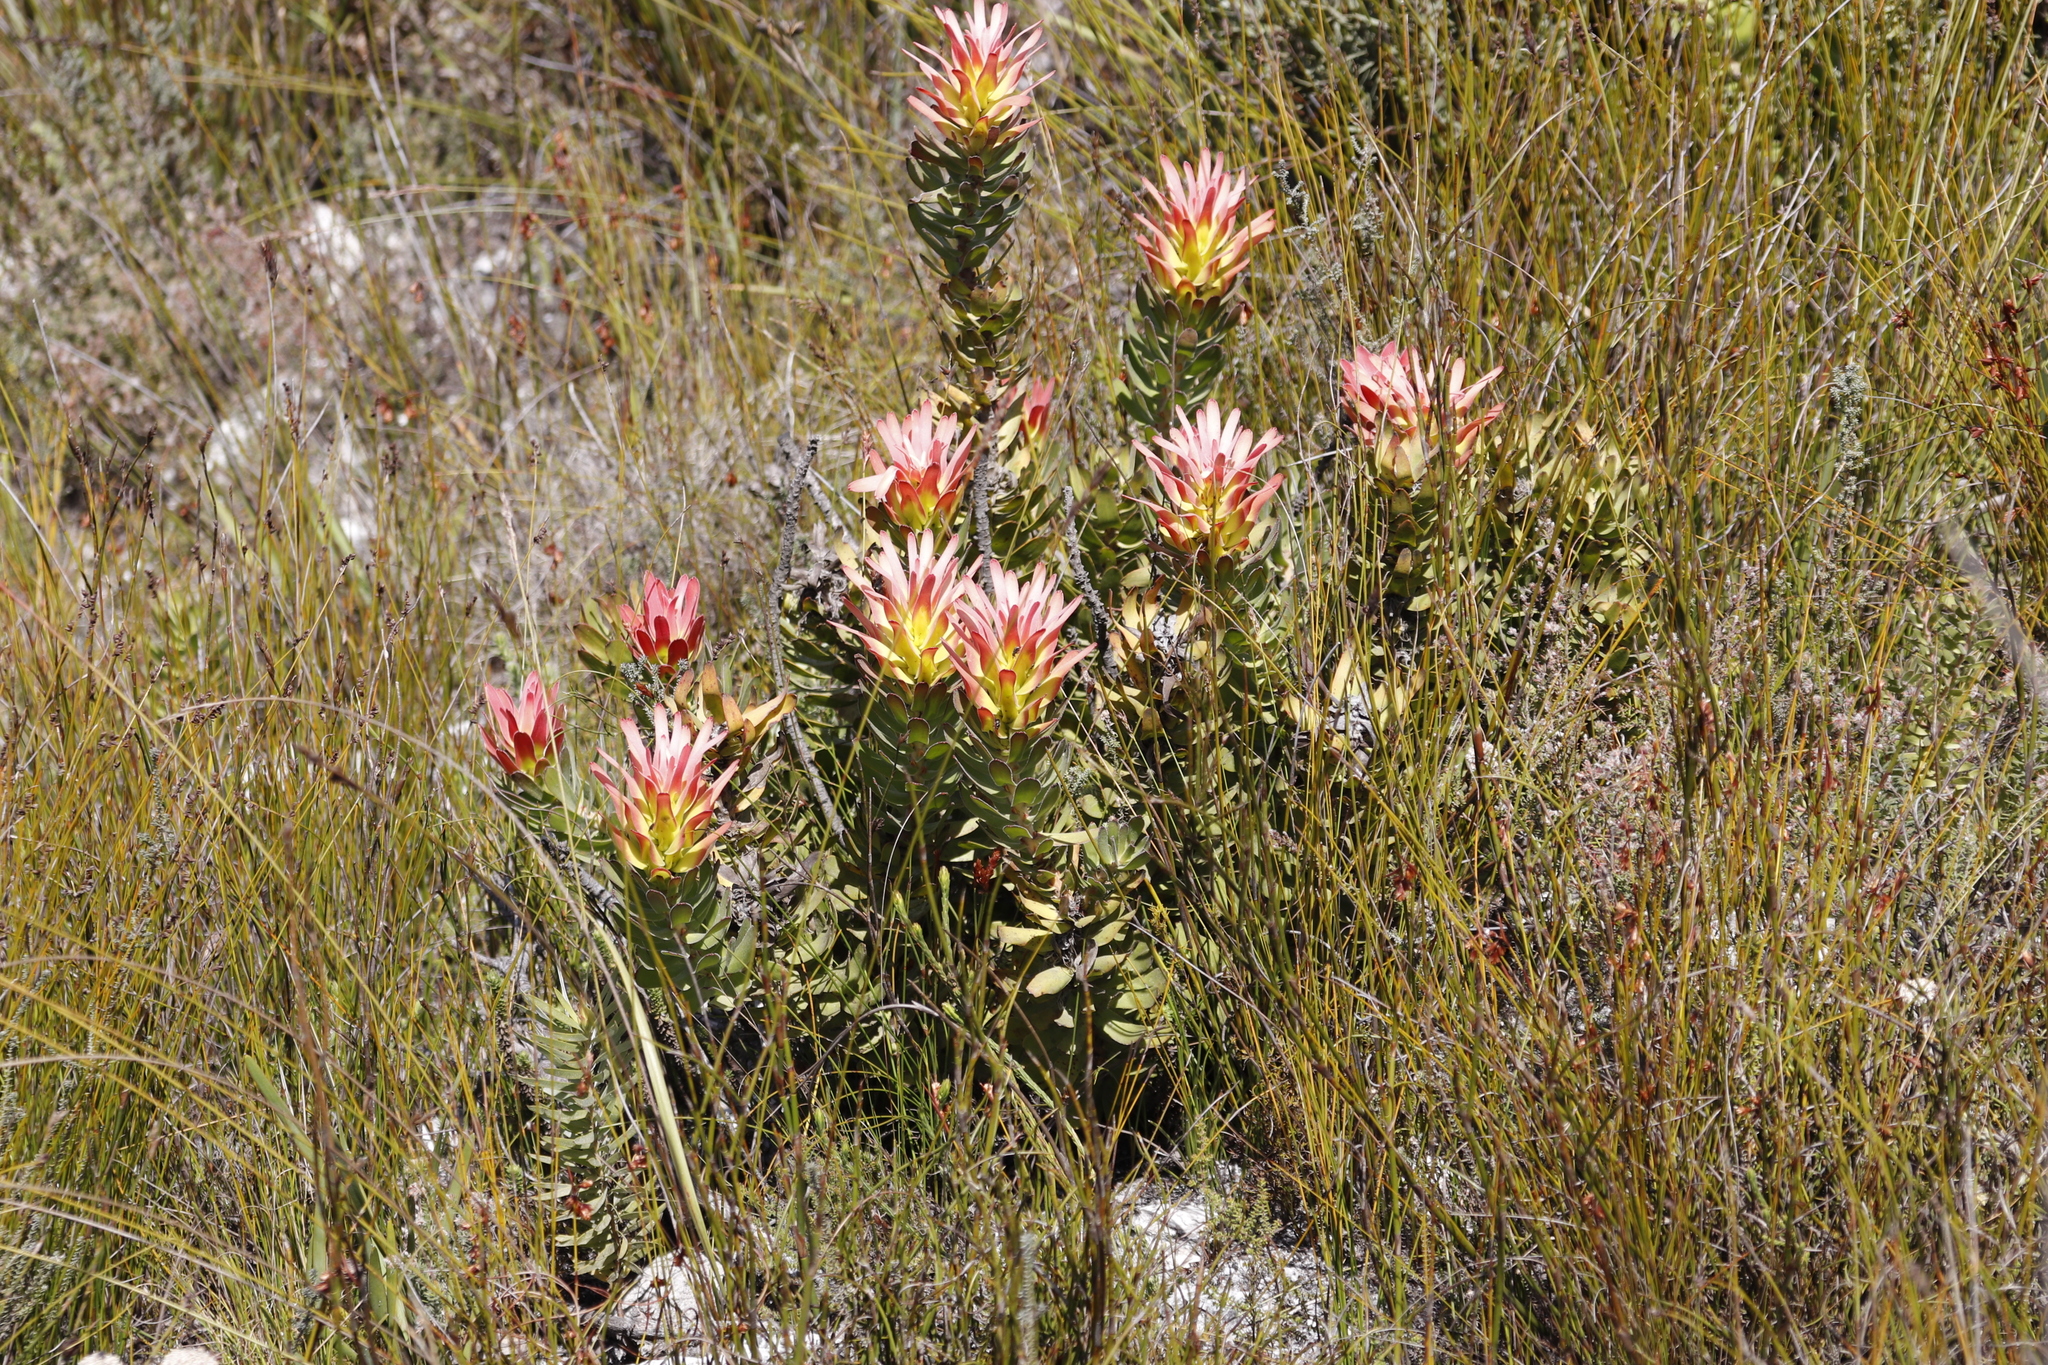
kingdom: Plantae
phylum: Tracheophyta
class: Magnoliopsida
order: Proteales
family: Proteaceae
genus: Mimetes
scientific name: Mimetes cucullatus
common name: Common pagoda
